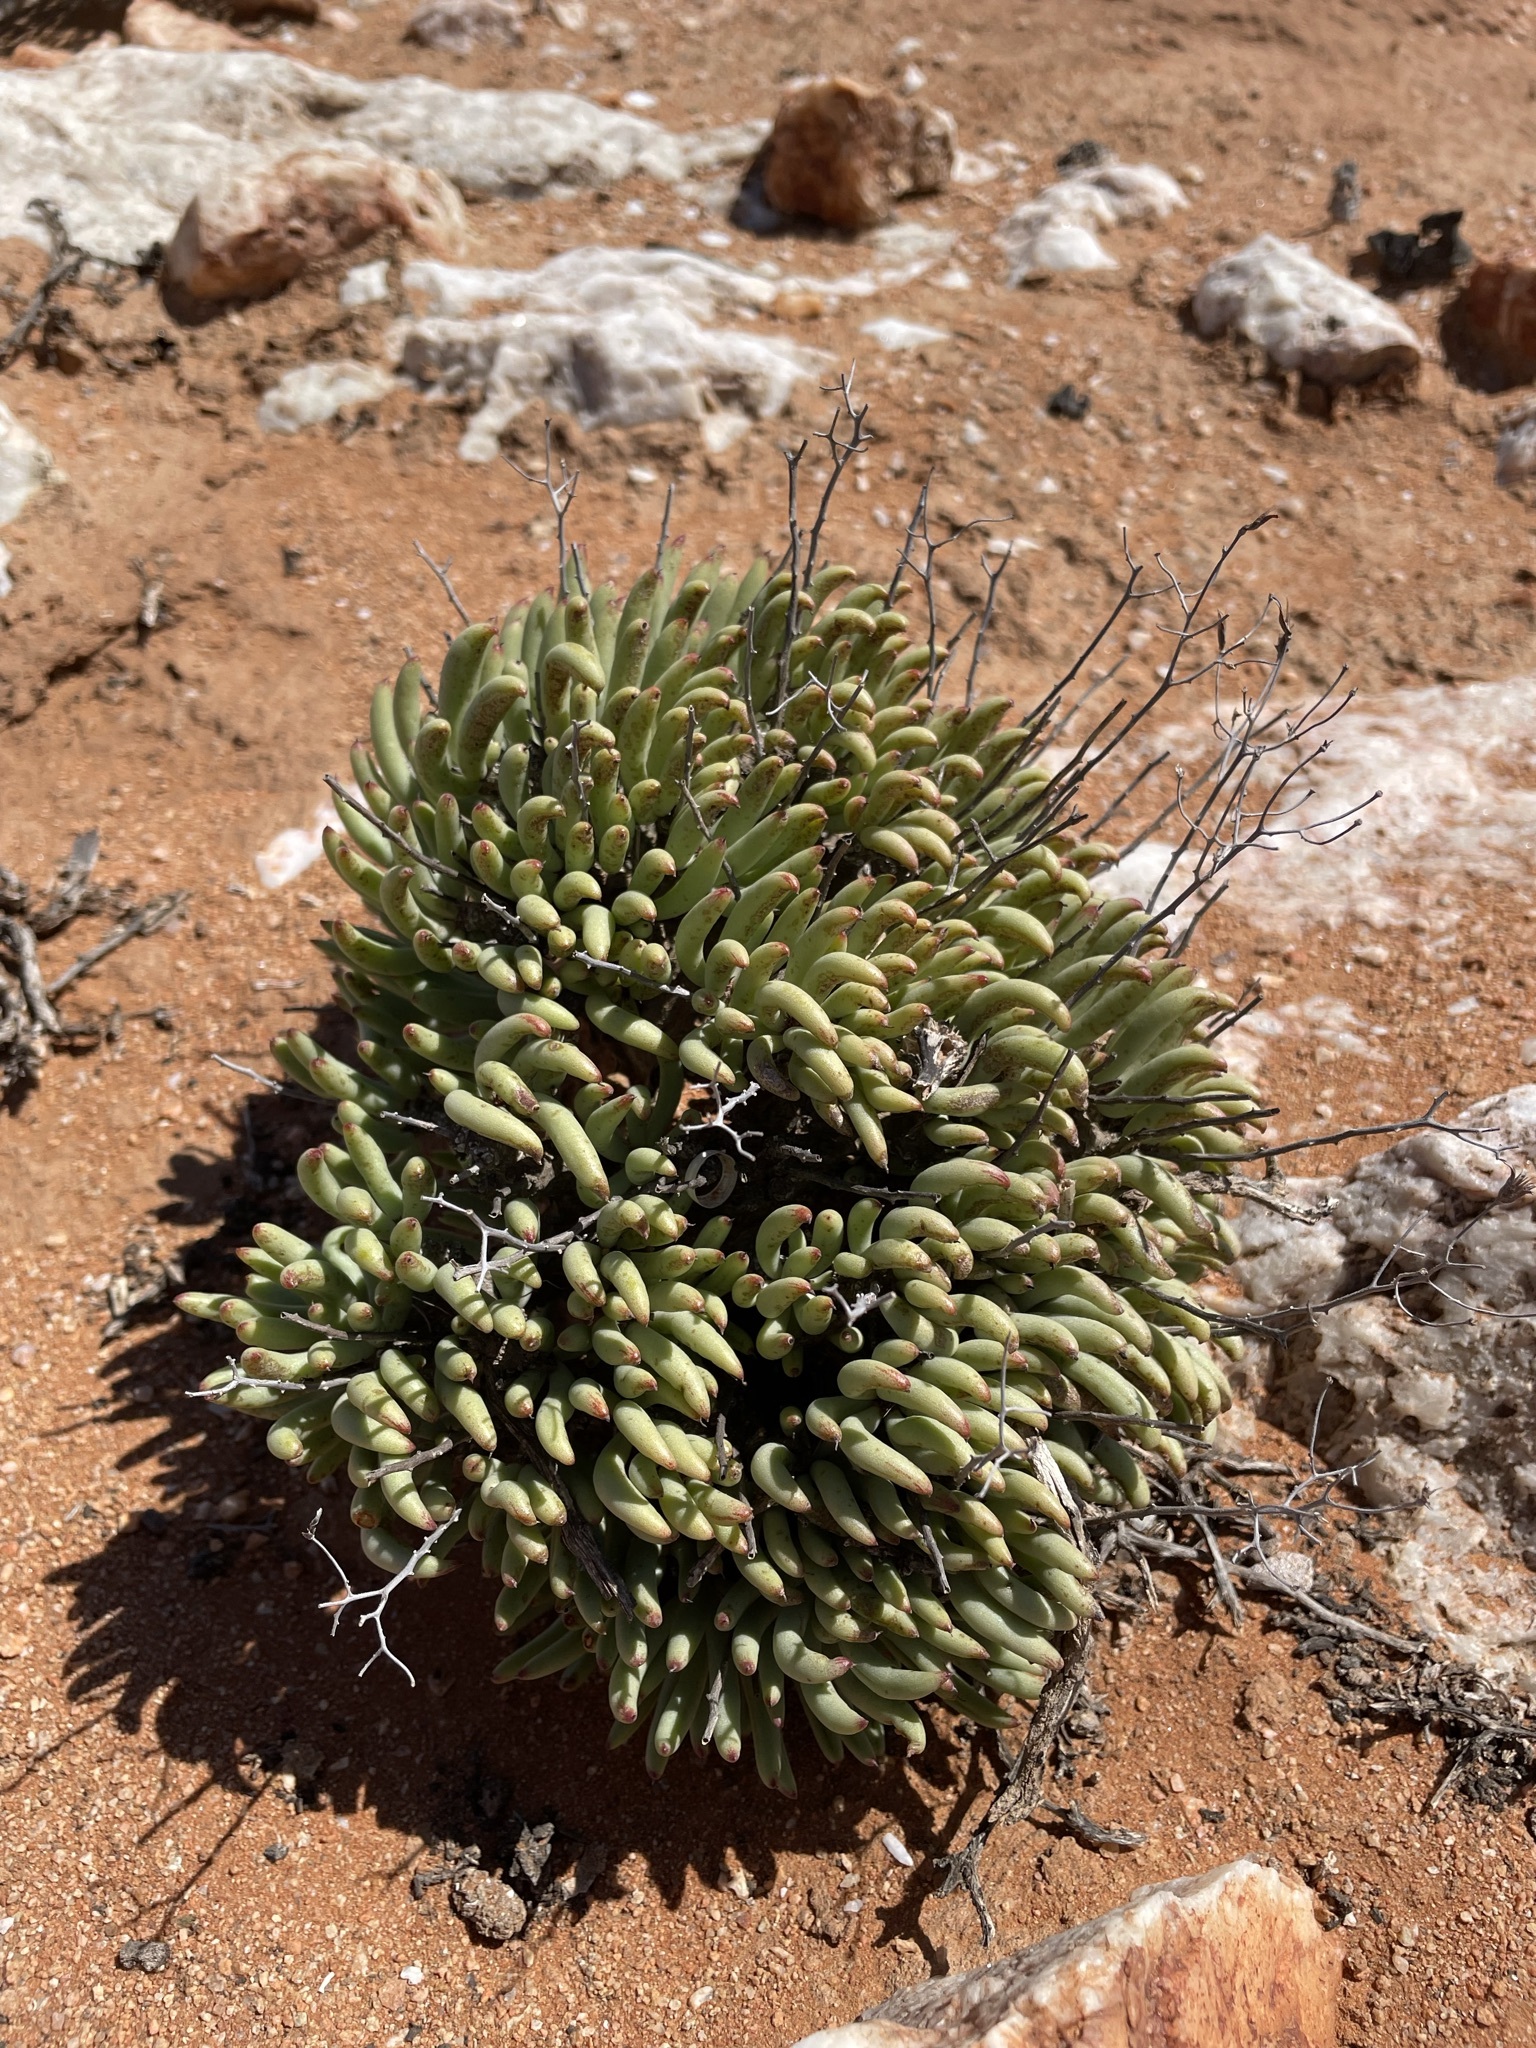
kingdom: Plantae
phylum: Tracheophyta
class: Magnoliopsida
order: Saxifragales
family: Crassulaceae
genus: Tylecodon
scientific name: Tylecodon pearsonii
